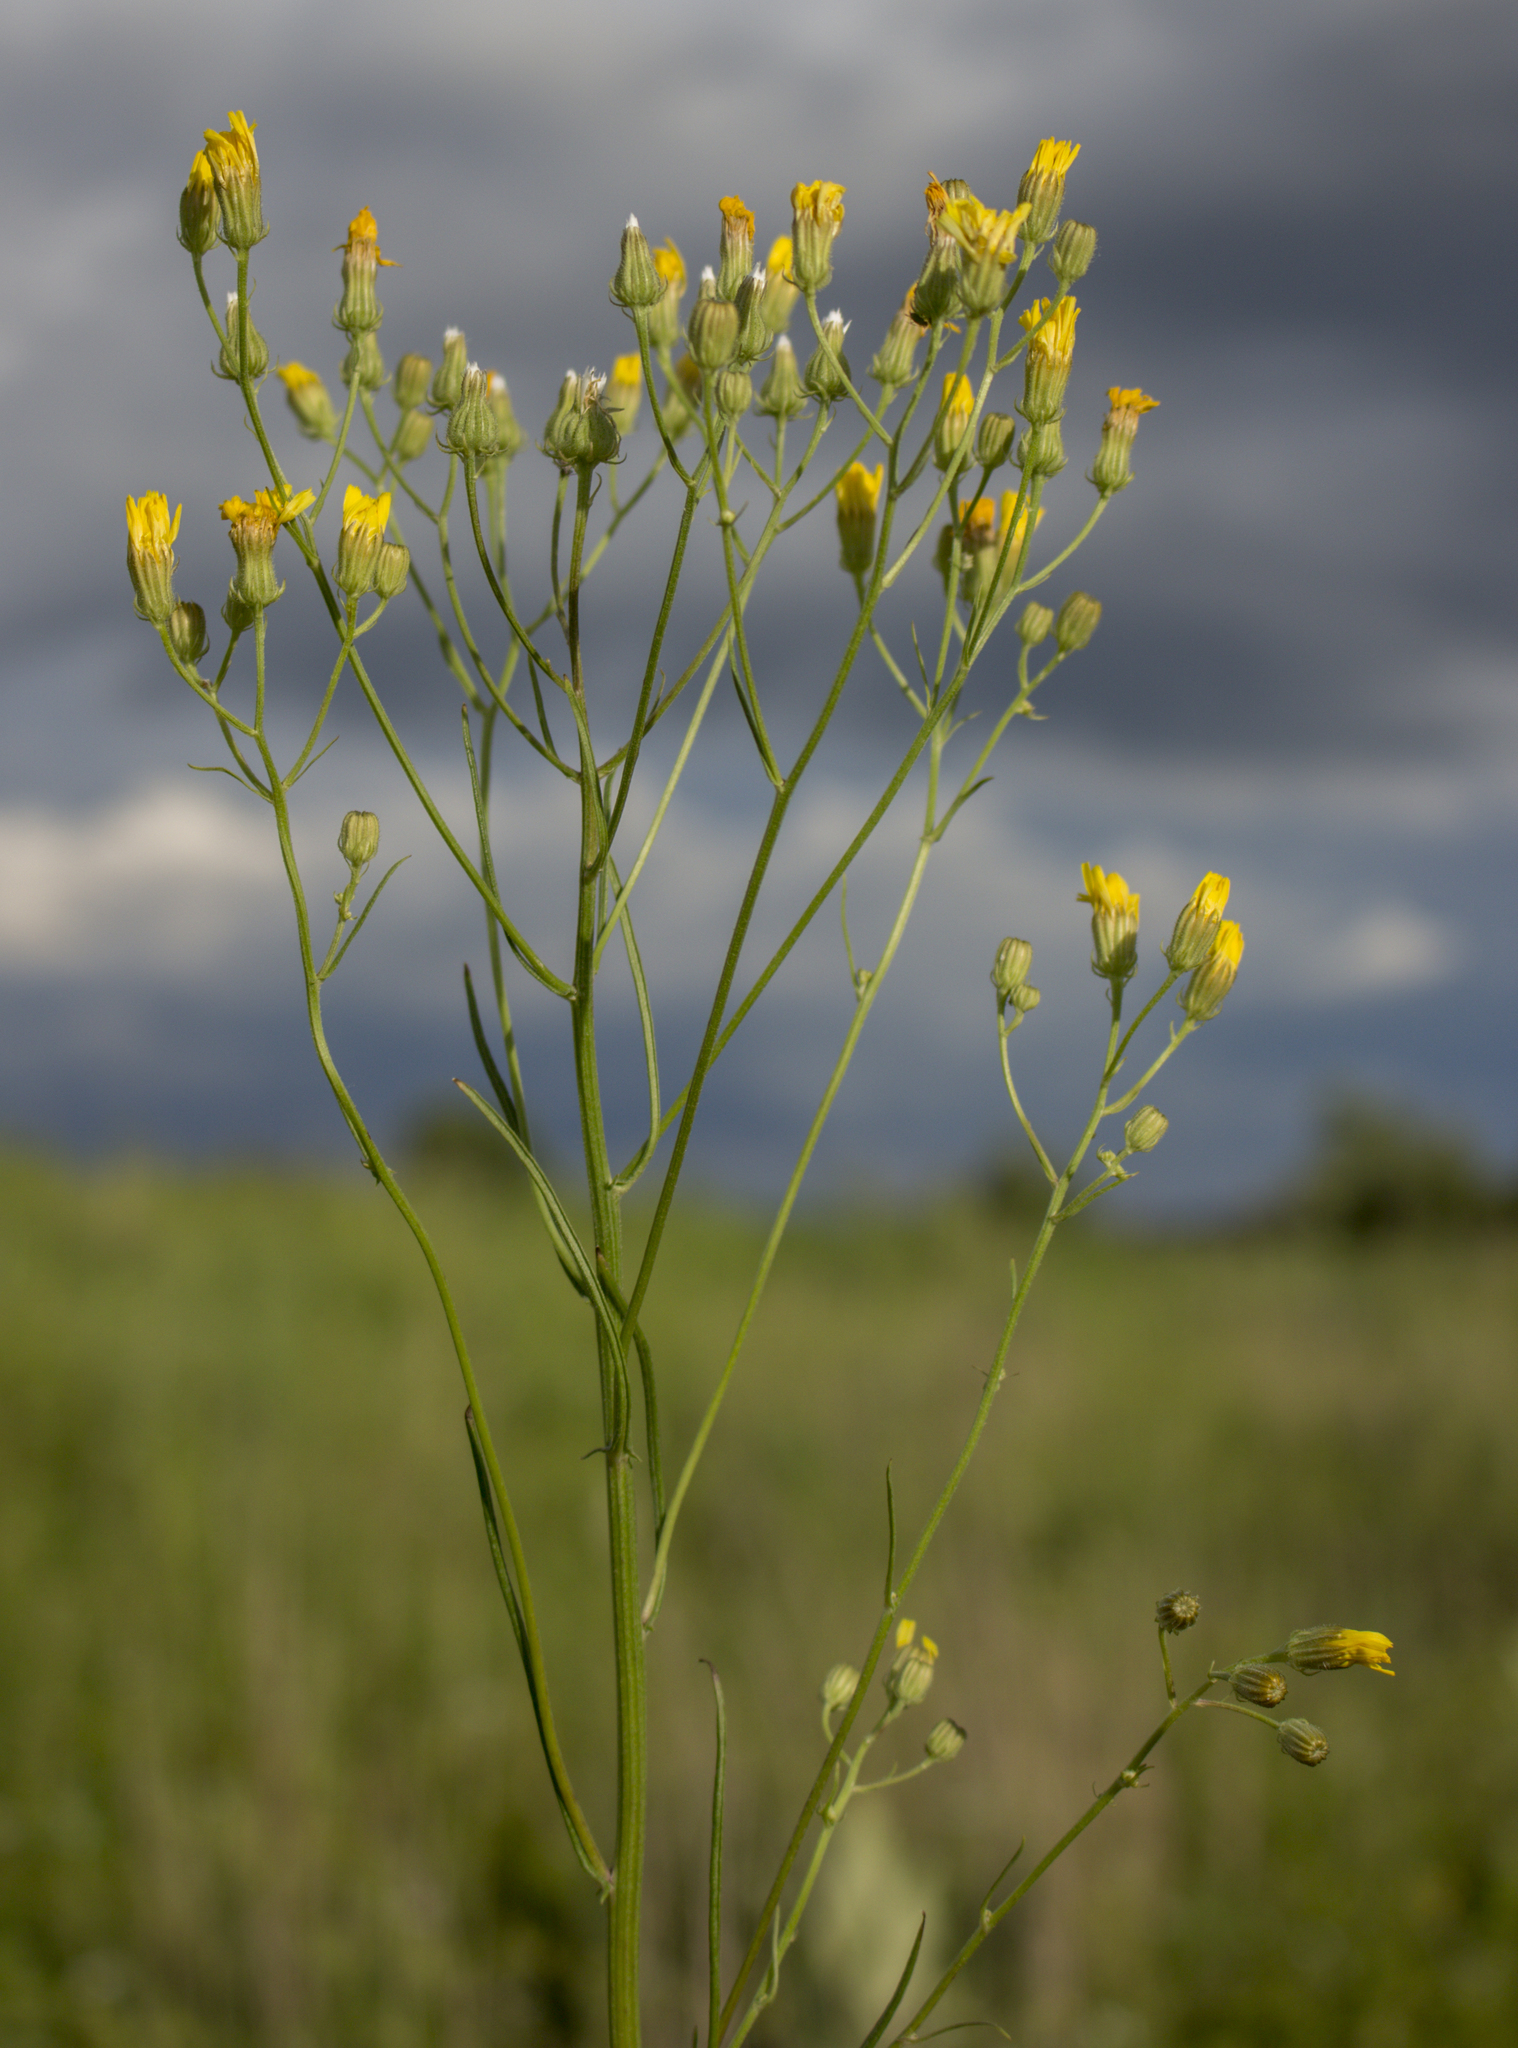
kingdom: Plantae
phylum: Tracheophyta
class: Magnoliopsida
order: Asterales
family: Asteraceae
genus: Crepis
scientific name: Crepis tectorum
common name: Narrow-leaved hawk's-beard
